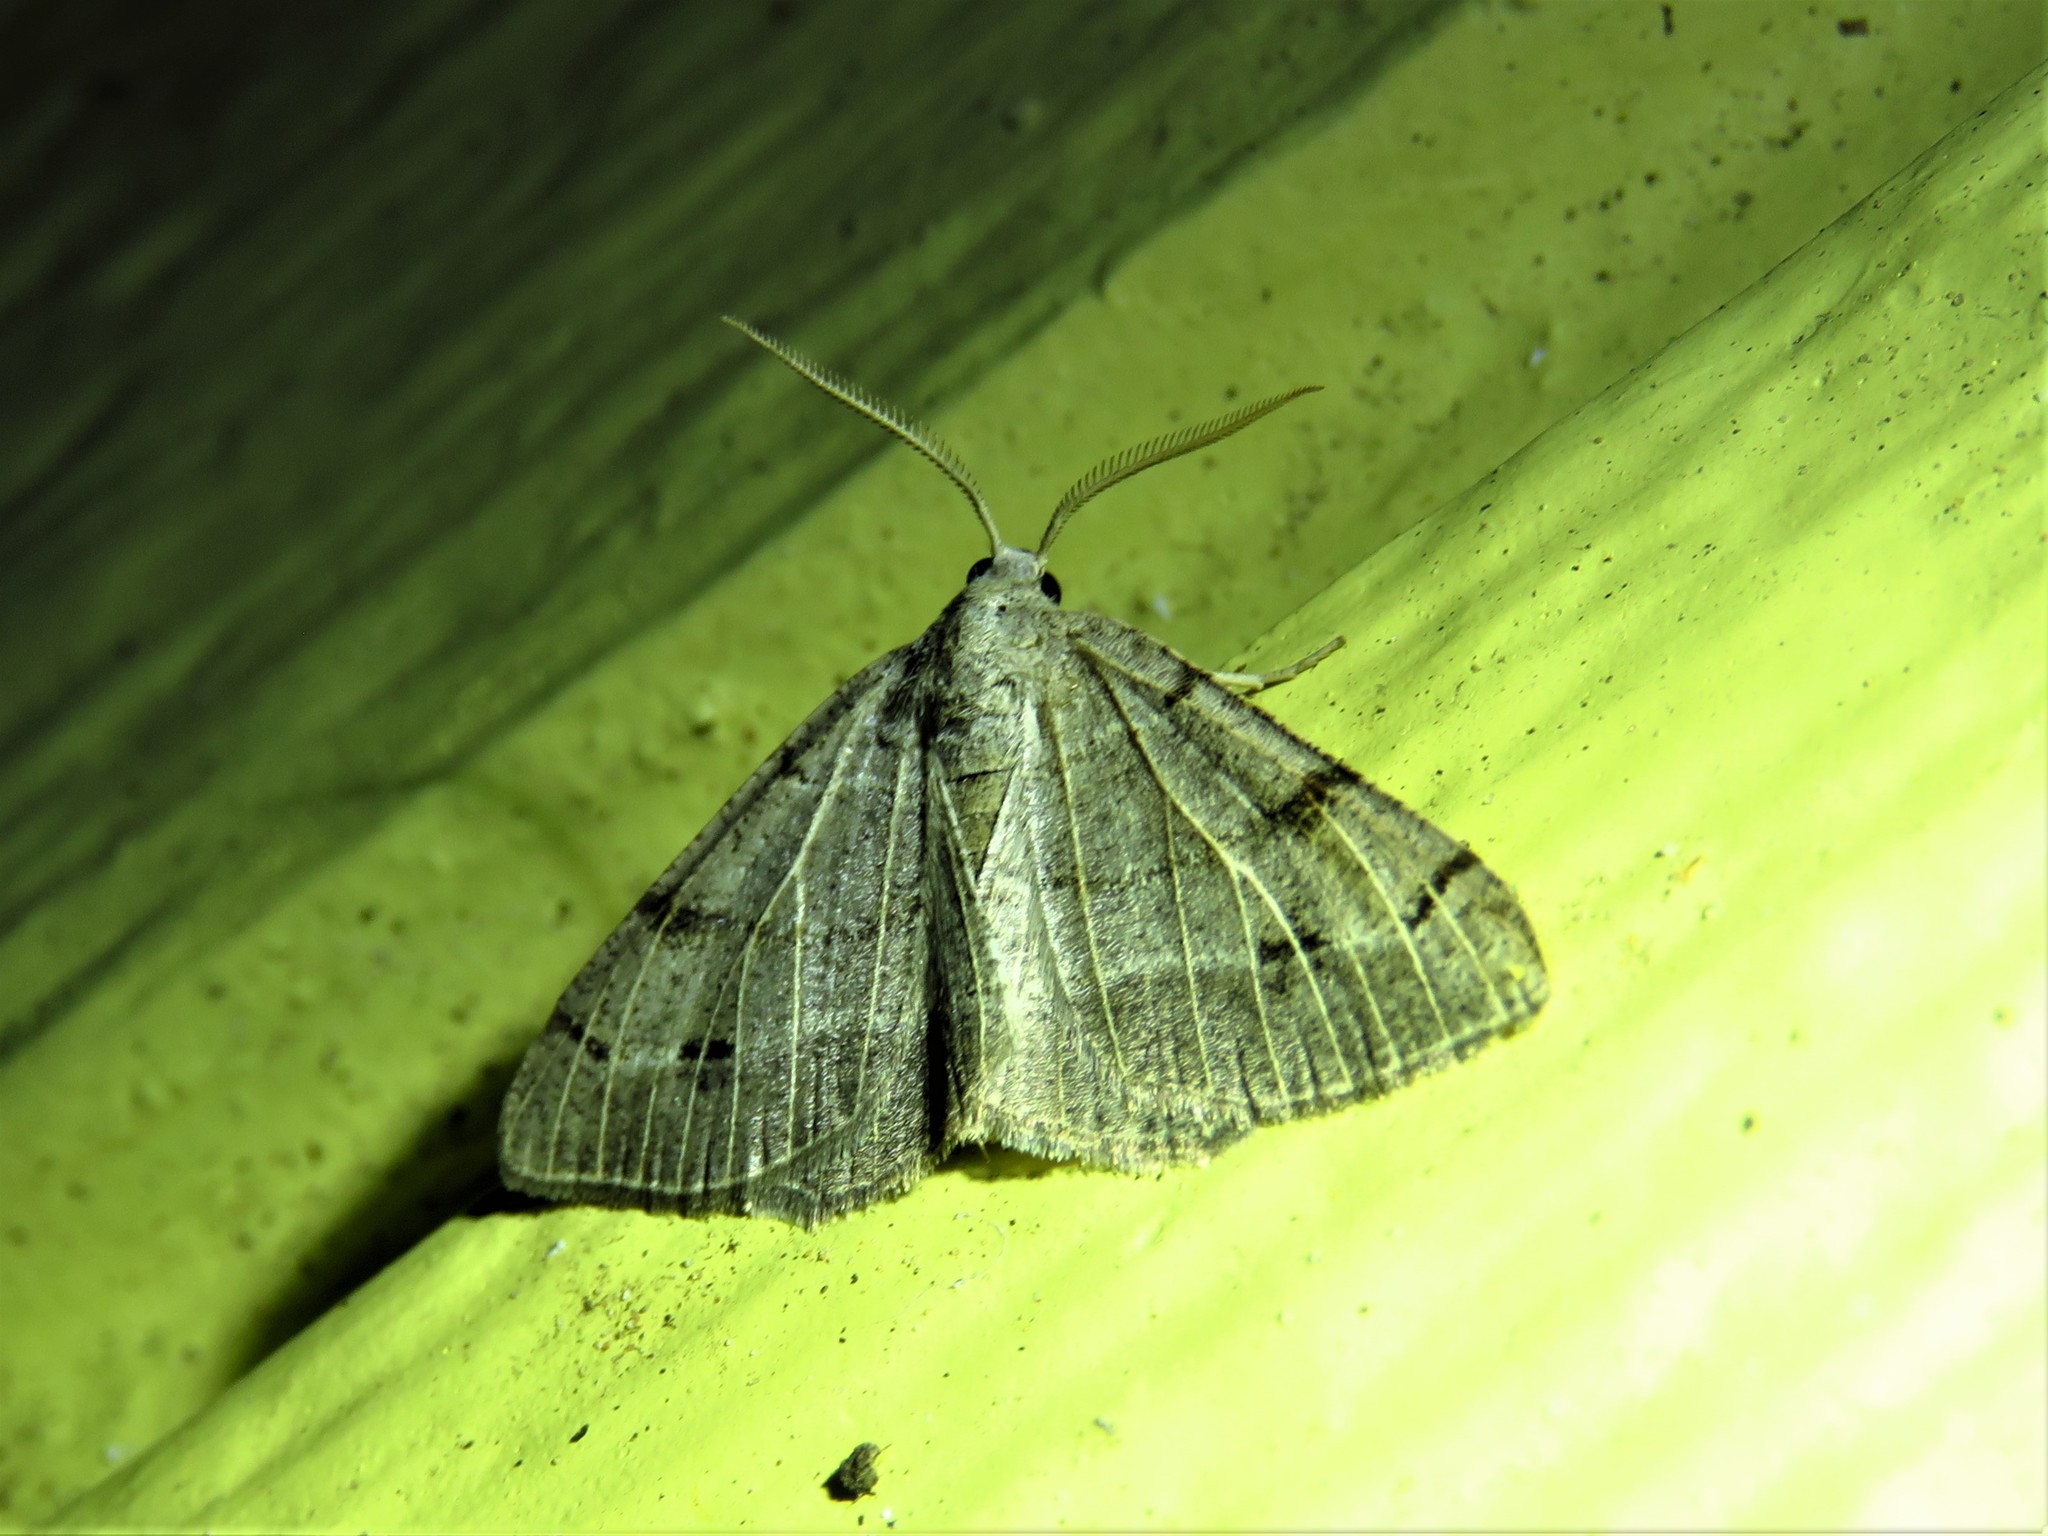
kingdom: Animalia
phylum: Arthropoda
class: Insecta
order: Lepidoptera
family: Geometridae
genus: Isturgia
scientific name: Isturgia dislocaria
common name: Pale-viened enconista
